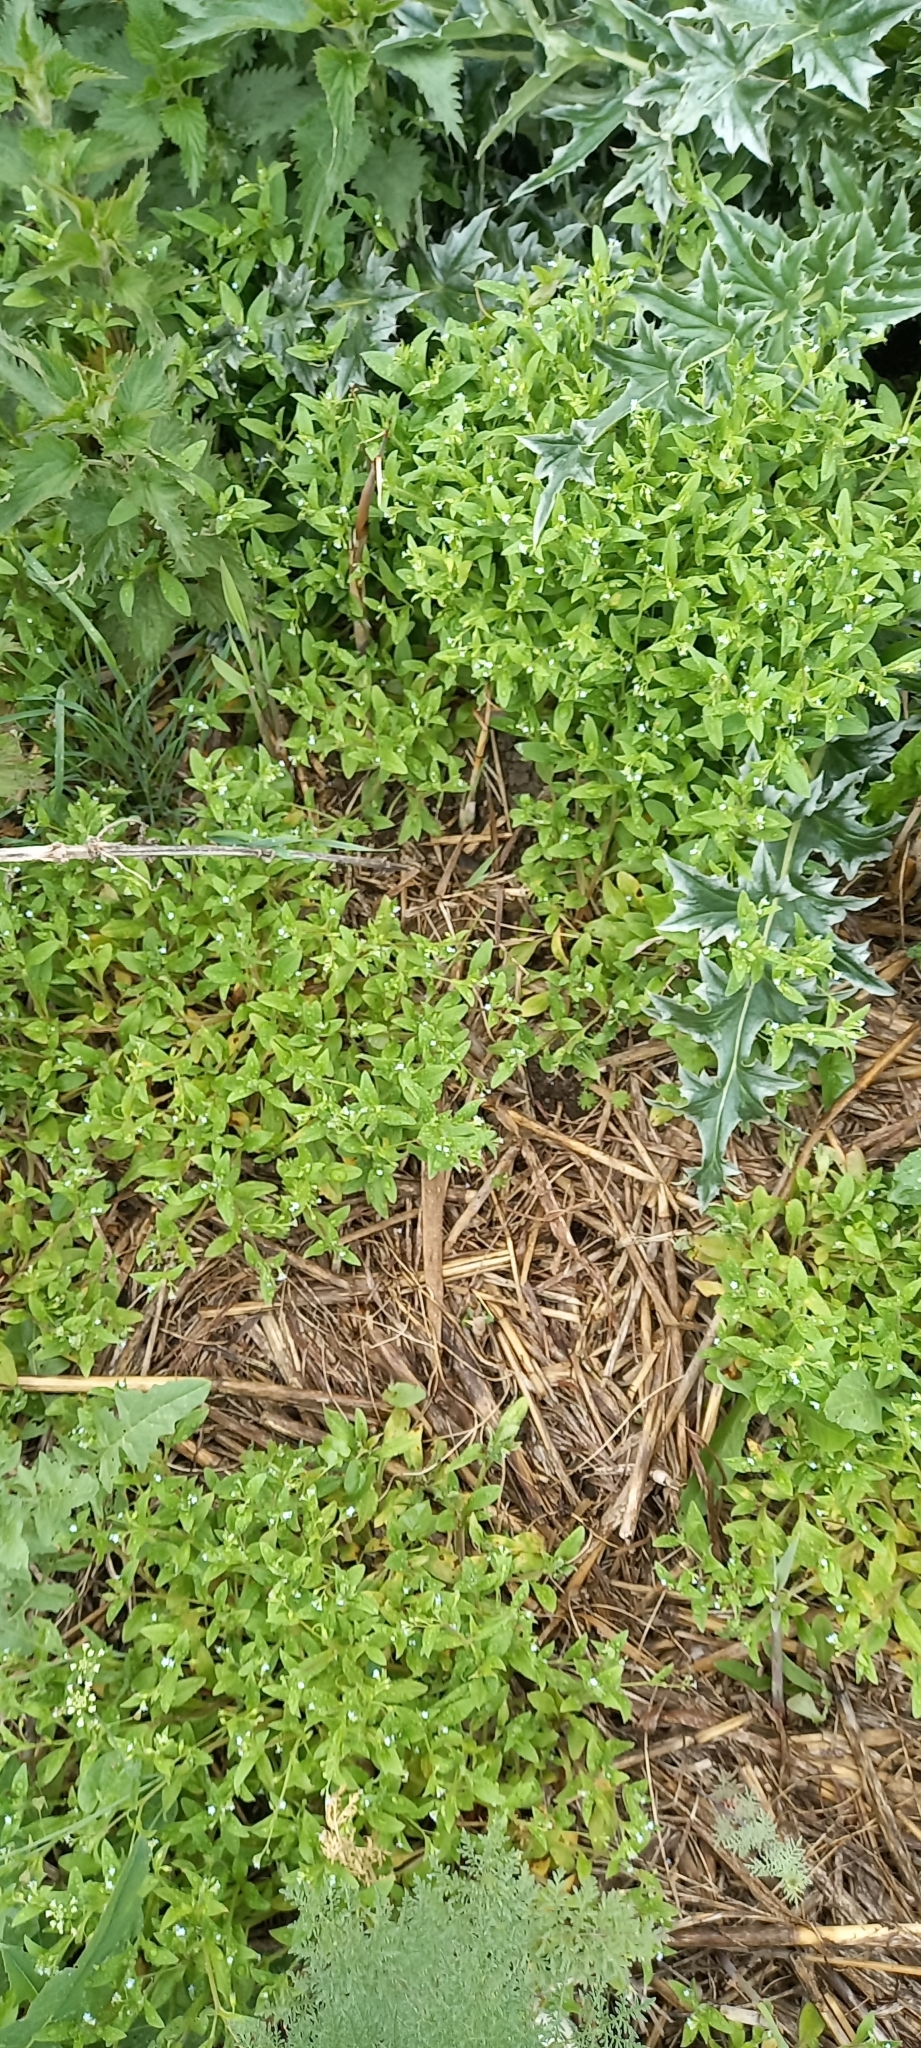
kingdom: Plantae
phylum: Tracheophyta
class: Magnoliopsida
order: Boraginales
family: Boraginaceae
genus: Myosotis
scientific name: Myosotis sparsiflora
